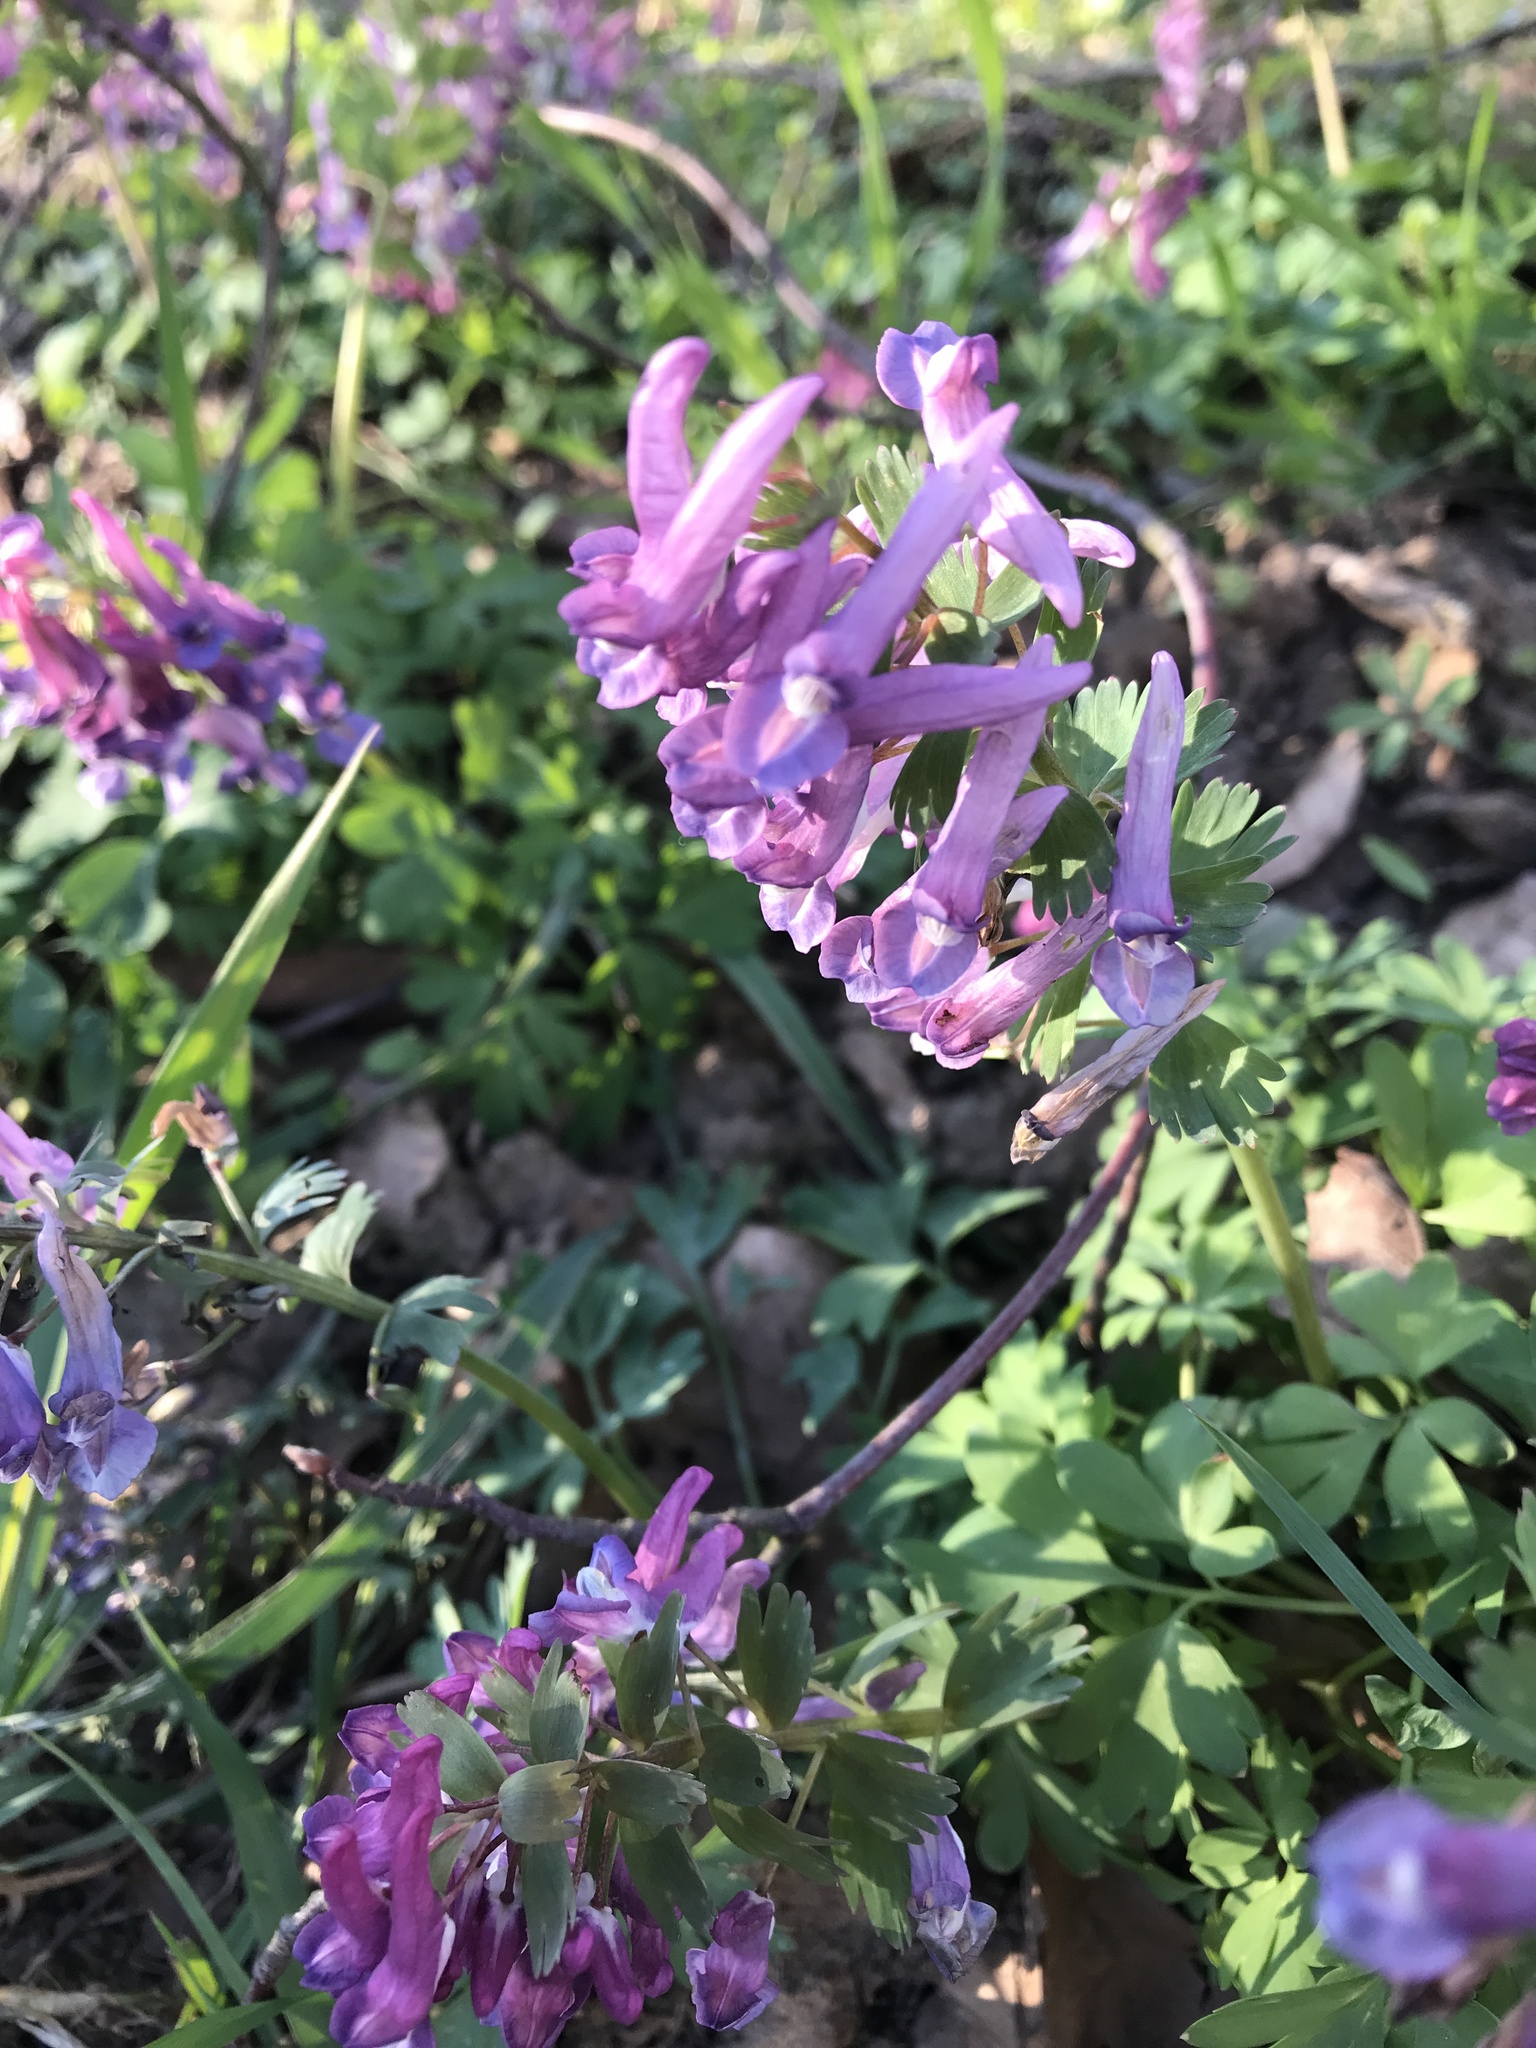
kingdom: Plantae
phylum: Tracheophyta
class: Magnoliopsida
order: Ranunculales
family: Papaveraceae
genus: Corydalis
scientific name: Corydalis solida
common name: Bird-in-a-bush
